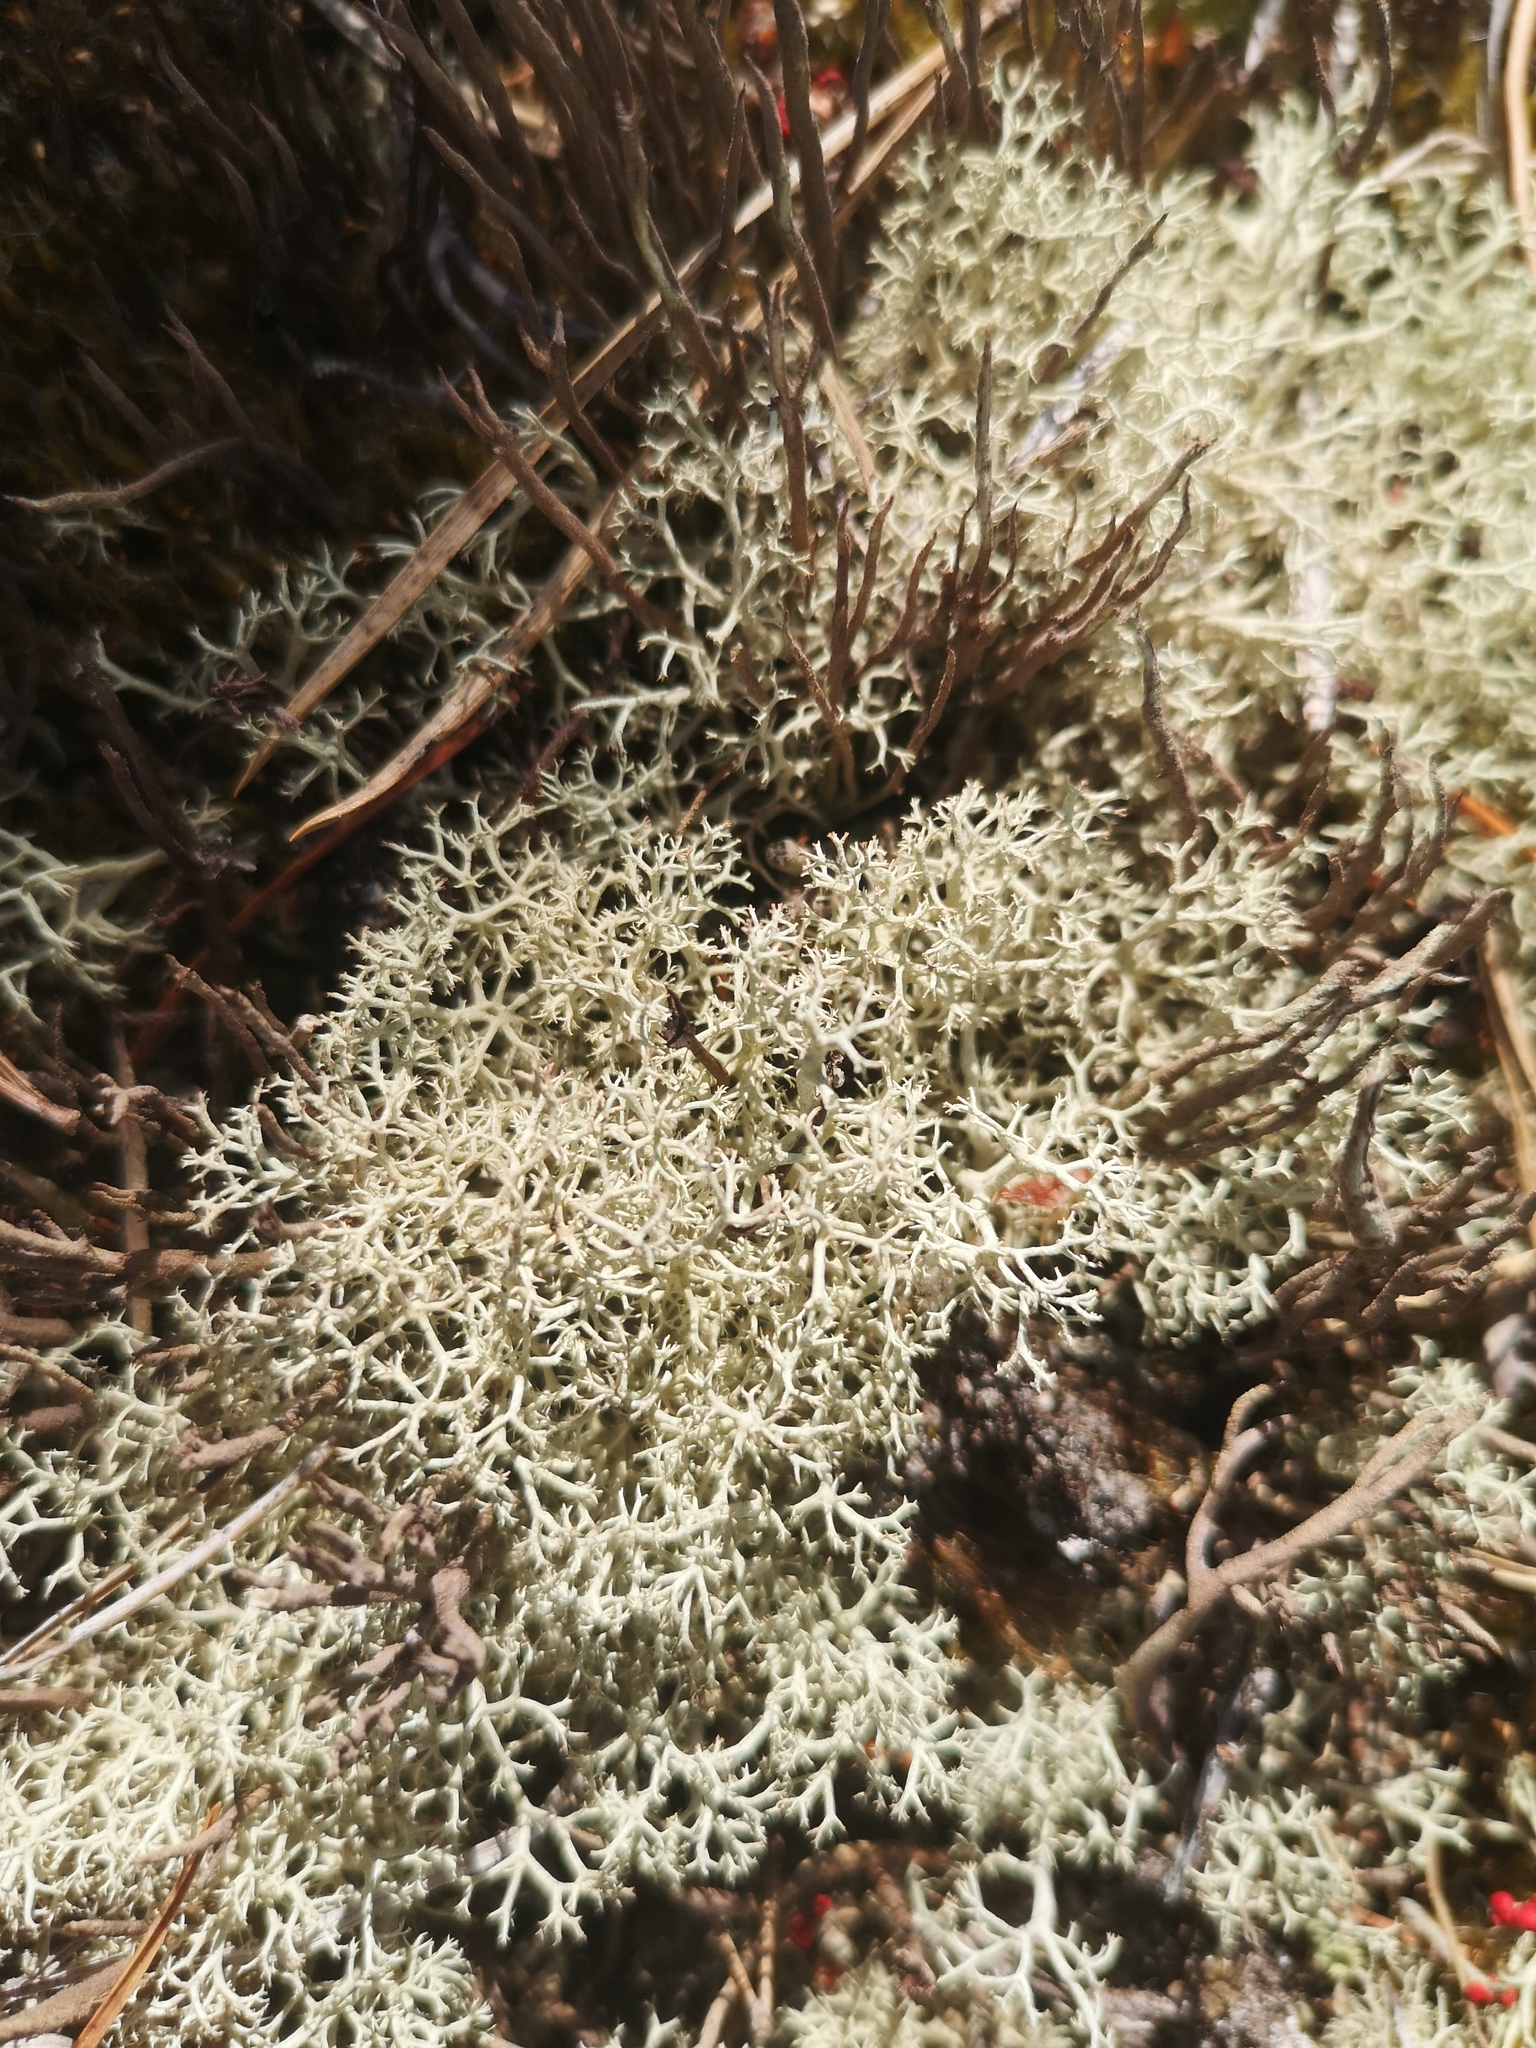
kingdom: Fungi
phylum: Ascomycota
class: Lecanoromycetes
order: Lecanorales
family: Cladoniaceae
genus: Cladonia
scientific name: Cladonia portentosa
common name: Reindeer lichen
